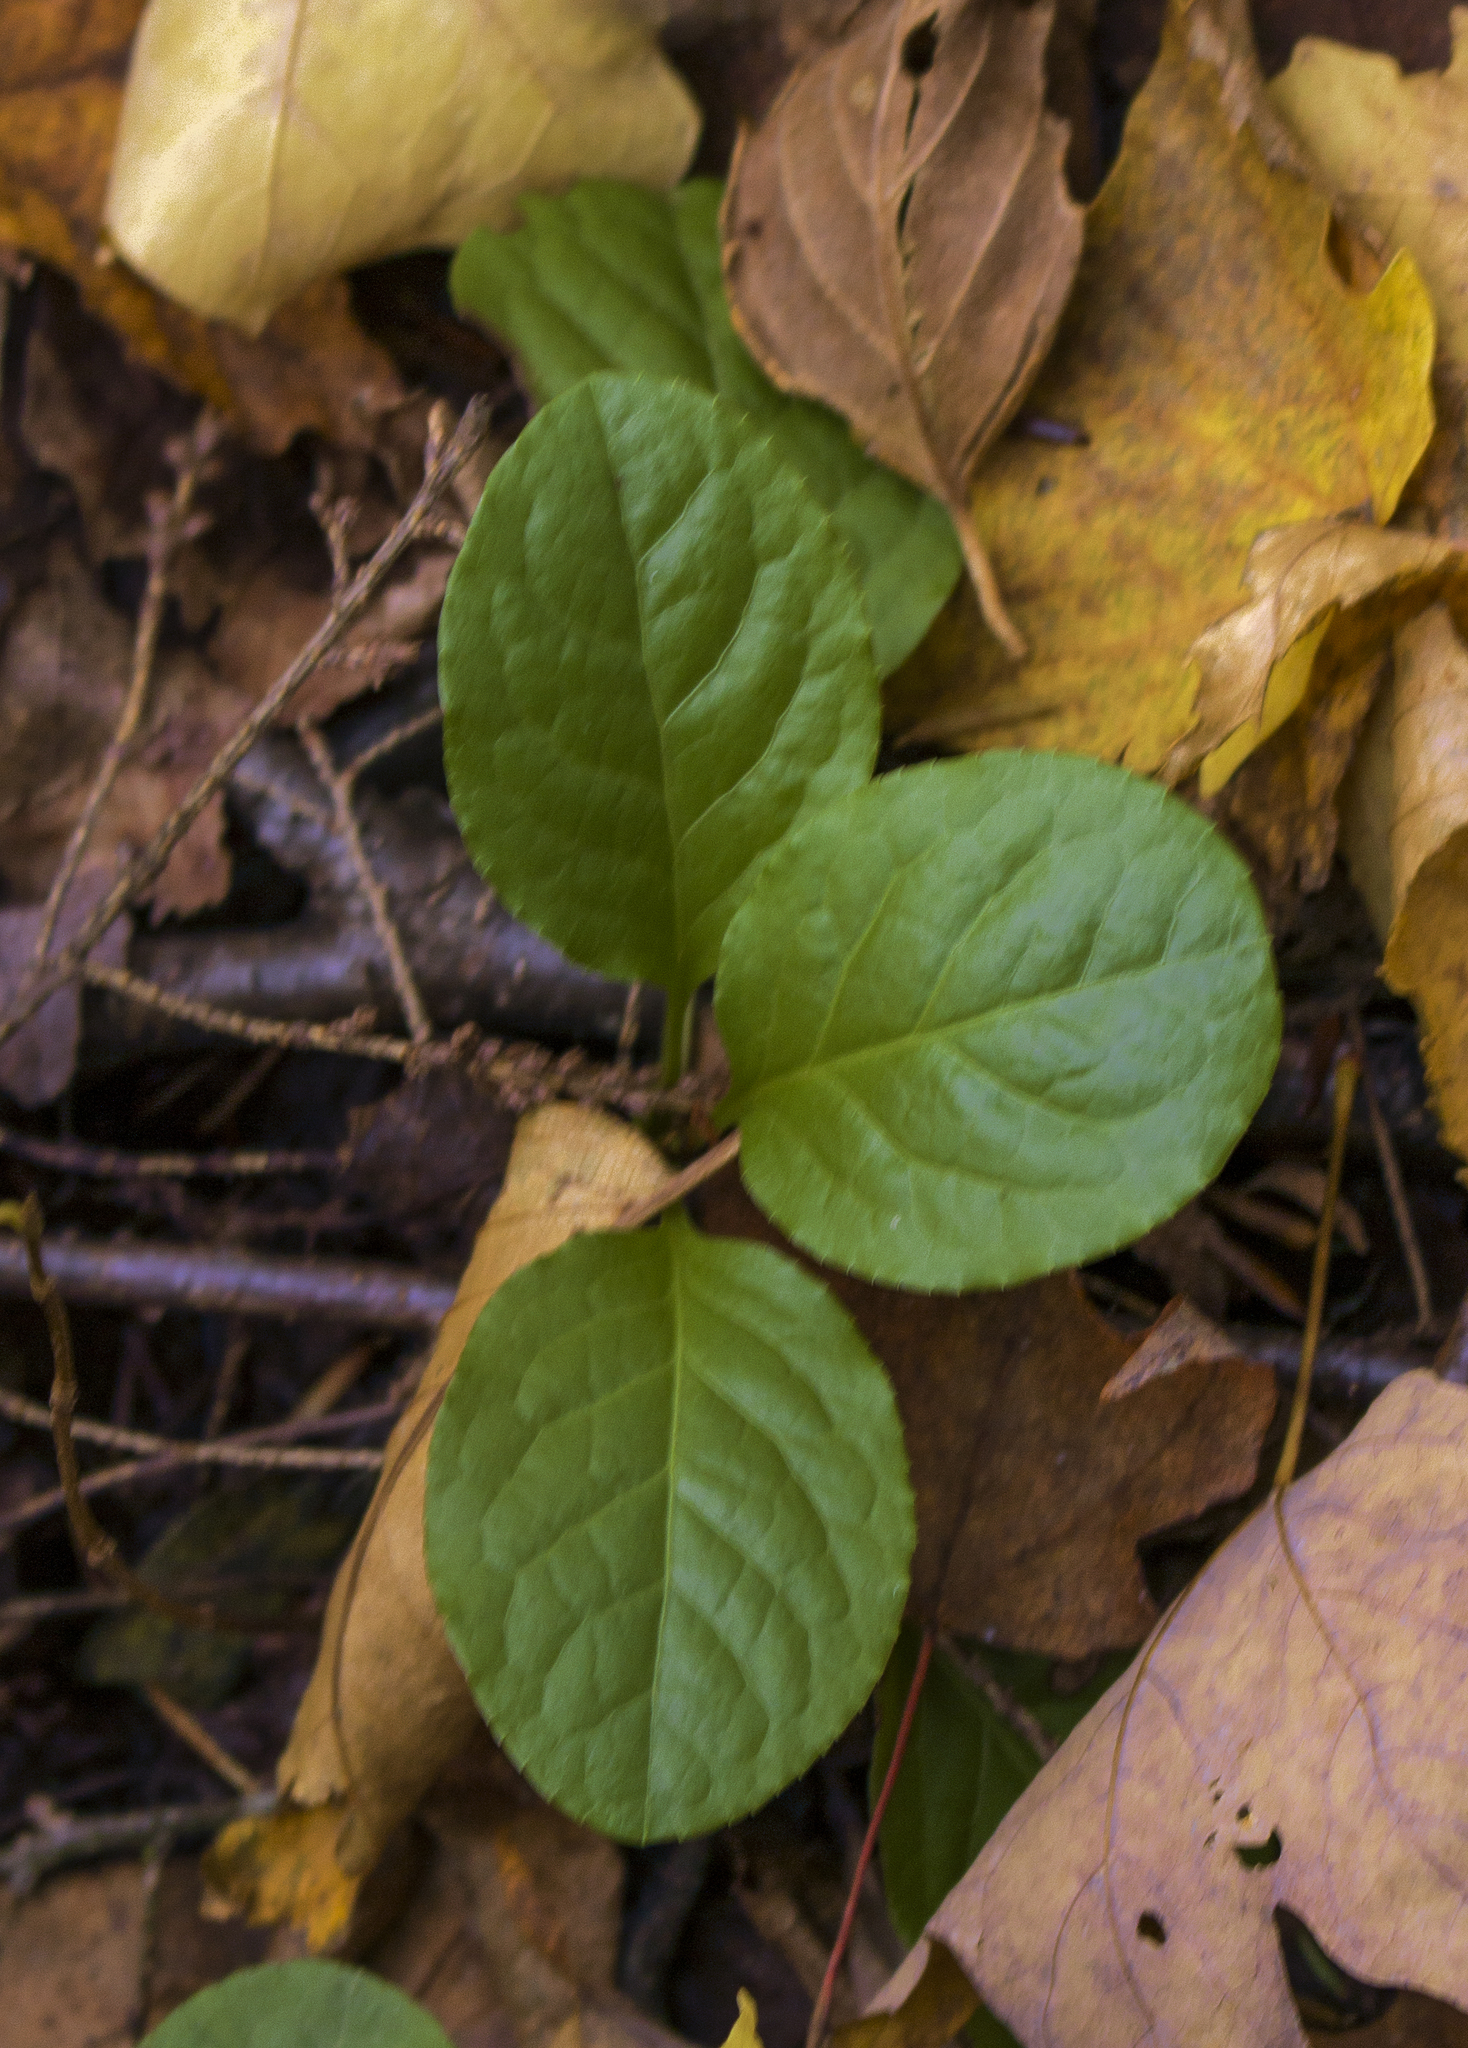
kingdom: Plantae
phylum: Tracheophyta
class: Magnoliopsida
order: Ericales
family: Ericaceae
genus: Pyrola
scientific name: Pyrola elliptica
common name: Shinleaf
